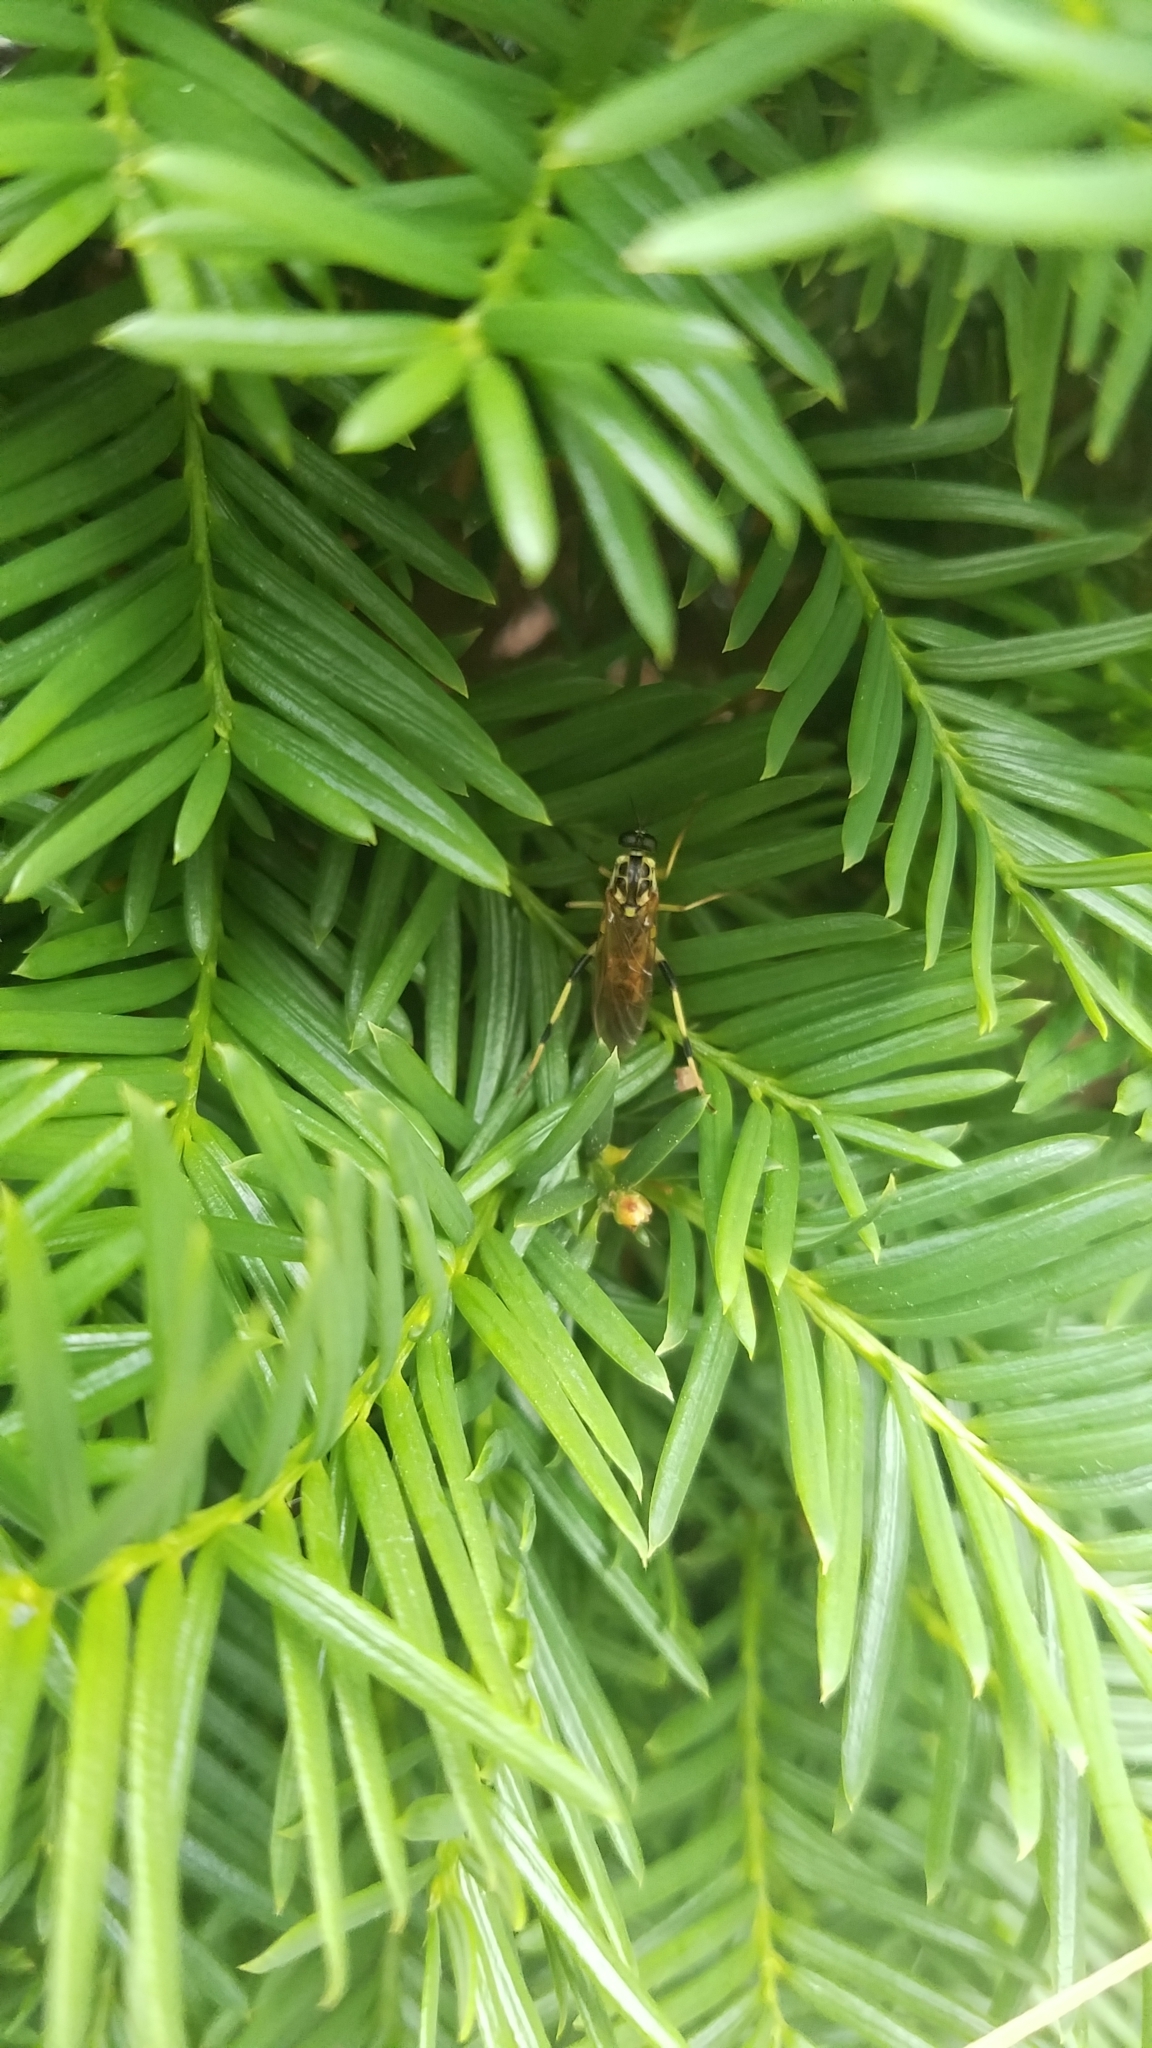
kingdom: Animalia
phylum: Arthropoda
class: Insecta
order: Diptera
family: Xylomyidae
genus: Xylomya
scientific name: Xylomya terminalis
